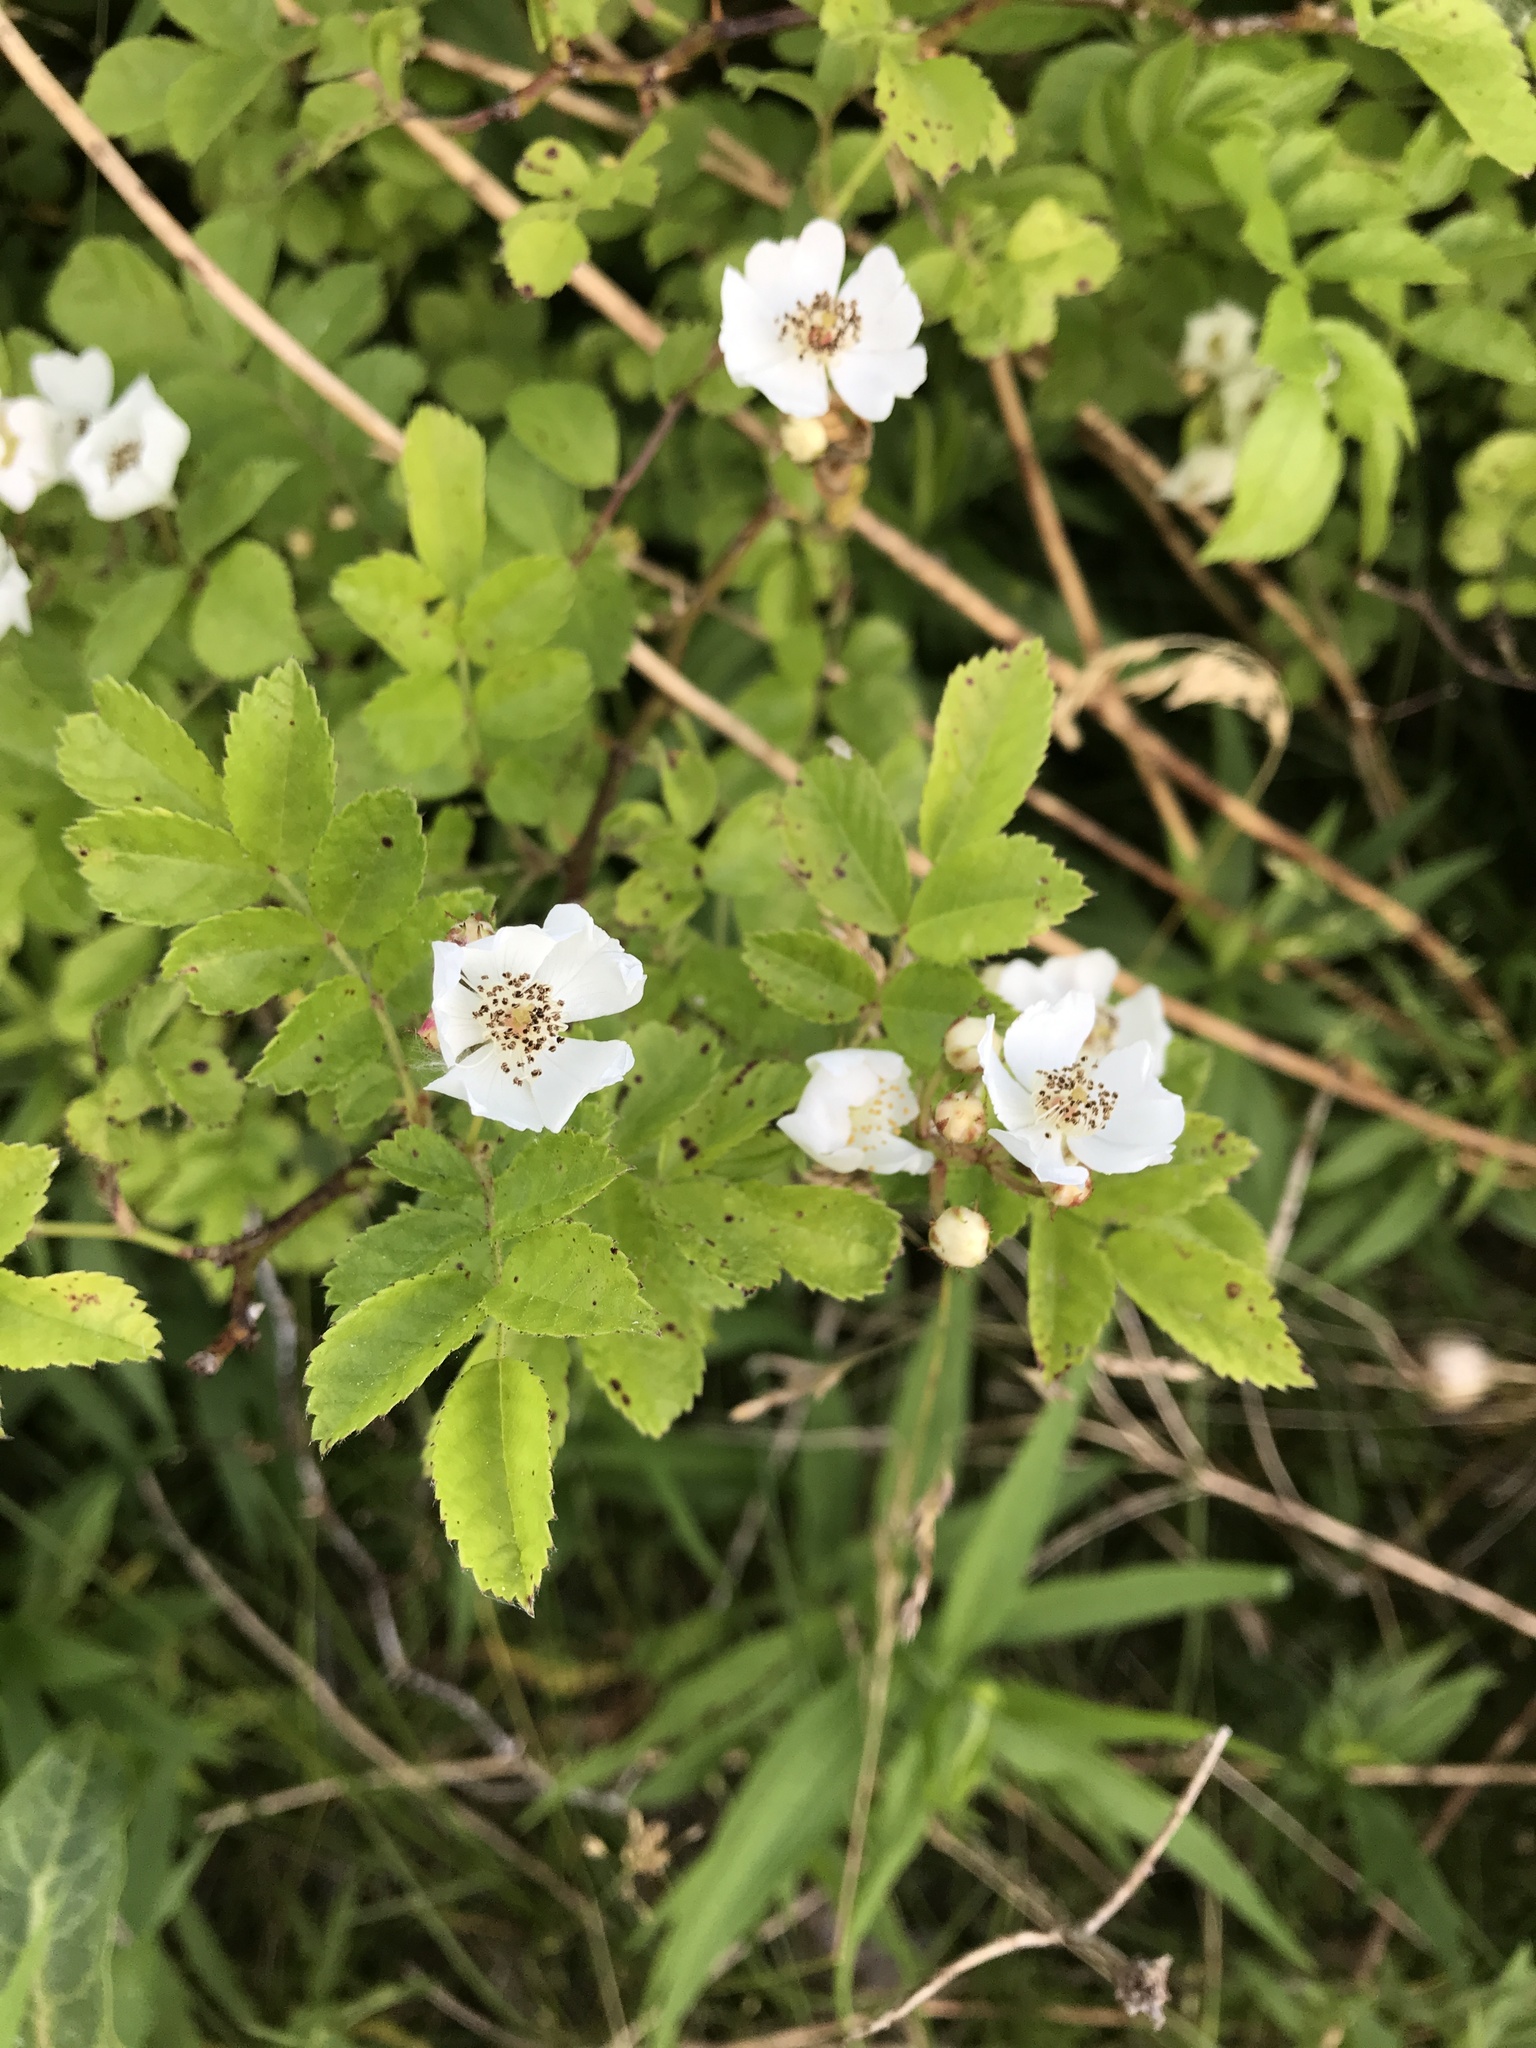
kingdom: Plantae
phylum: Tracheophyta
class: Magnoliopsida
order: Rosales
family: Rosaceae
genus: Rosa
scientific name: Rosa multiflora
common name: Multiflora rose
